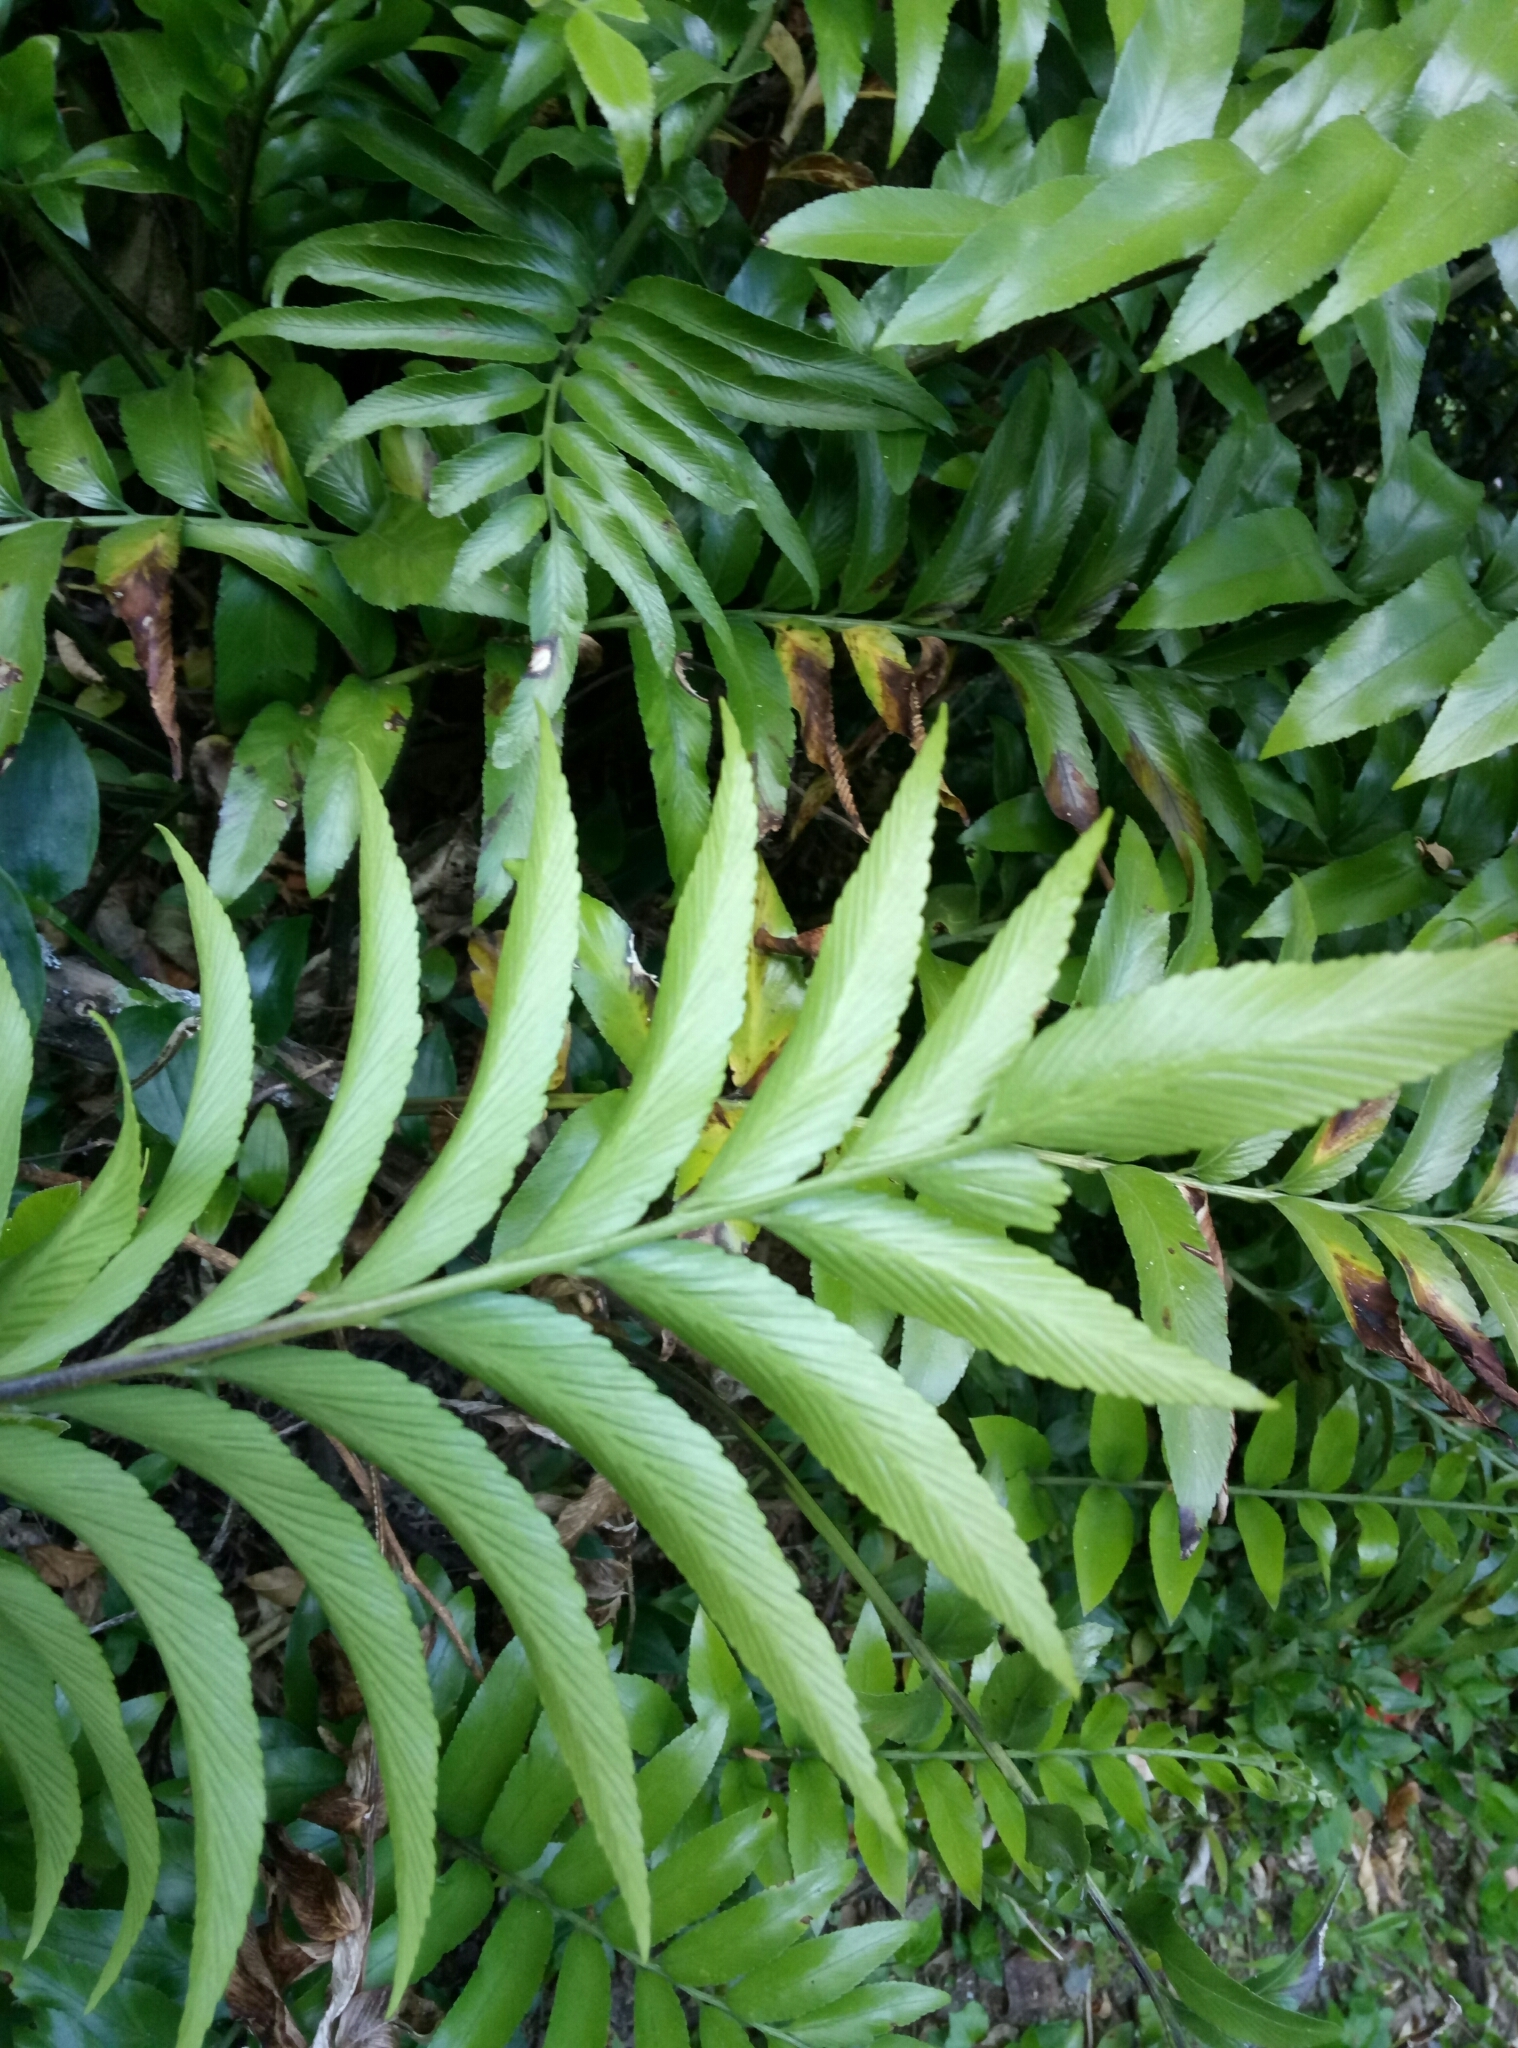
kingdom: Plantae
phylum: Tracheophyta
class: Polypodiopsida
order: Polypodiales
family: Aspleniaceae
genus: Asplenium
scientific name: Asplenium oblongifolium
